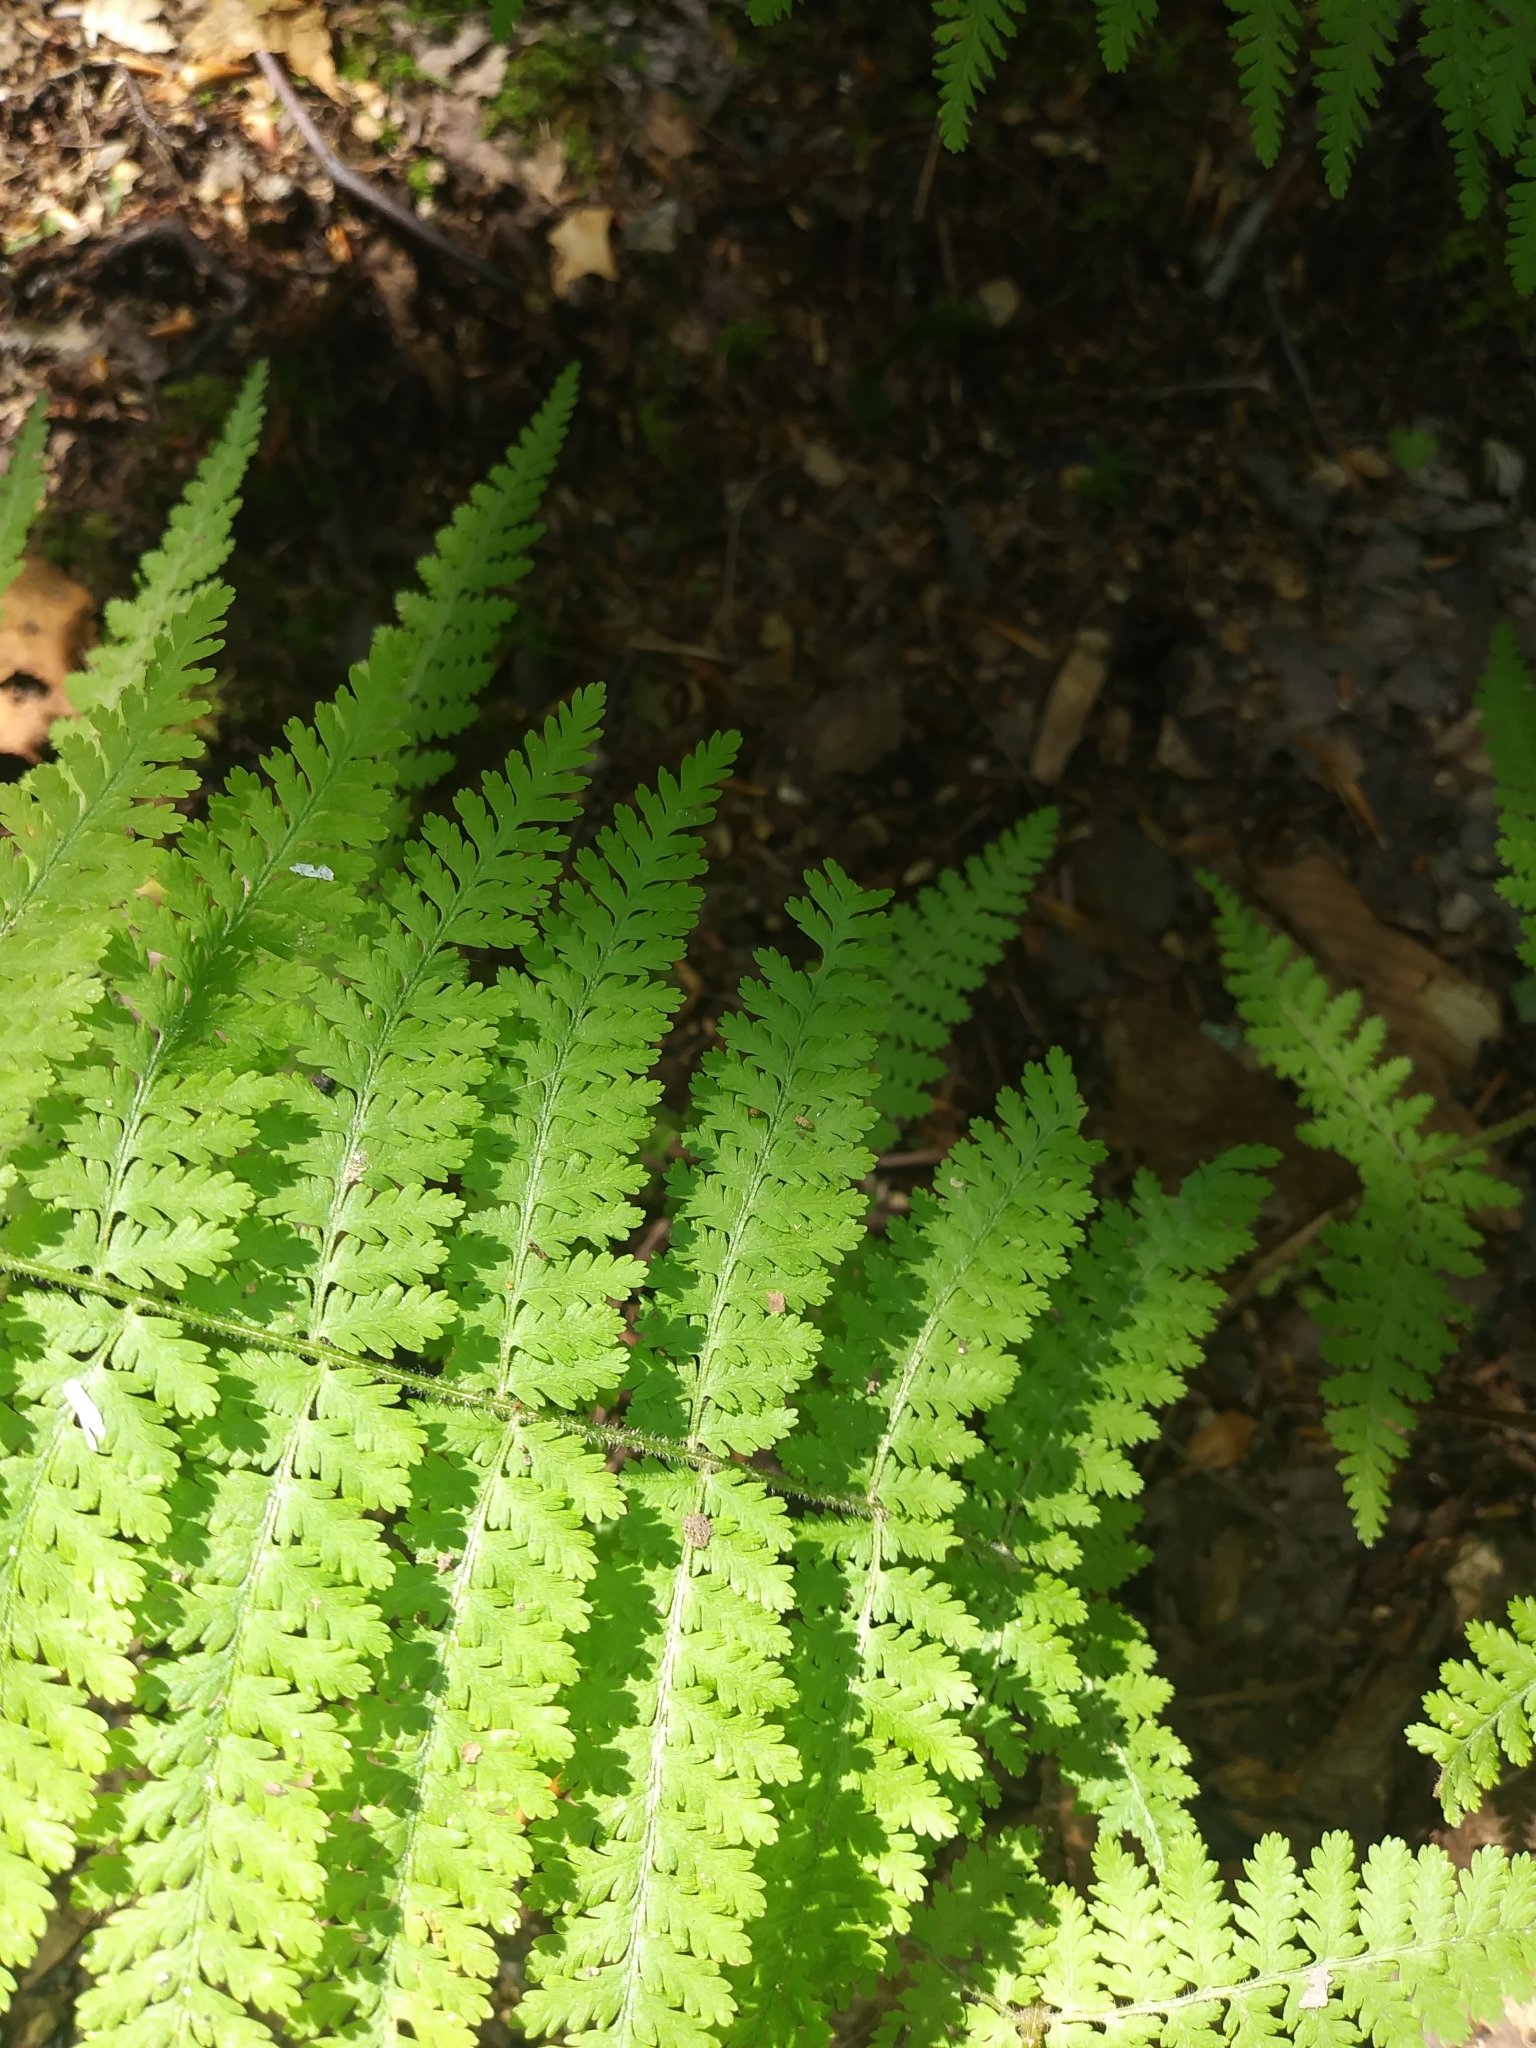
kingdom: Plantae
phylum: Tracheophyta
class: Polypodiopsida
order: Polypodiales
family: Dennstaedtiaceae
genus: Sitobolium
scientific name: Sitobolium punctilobum
